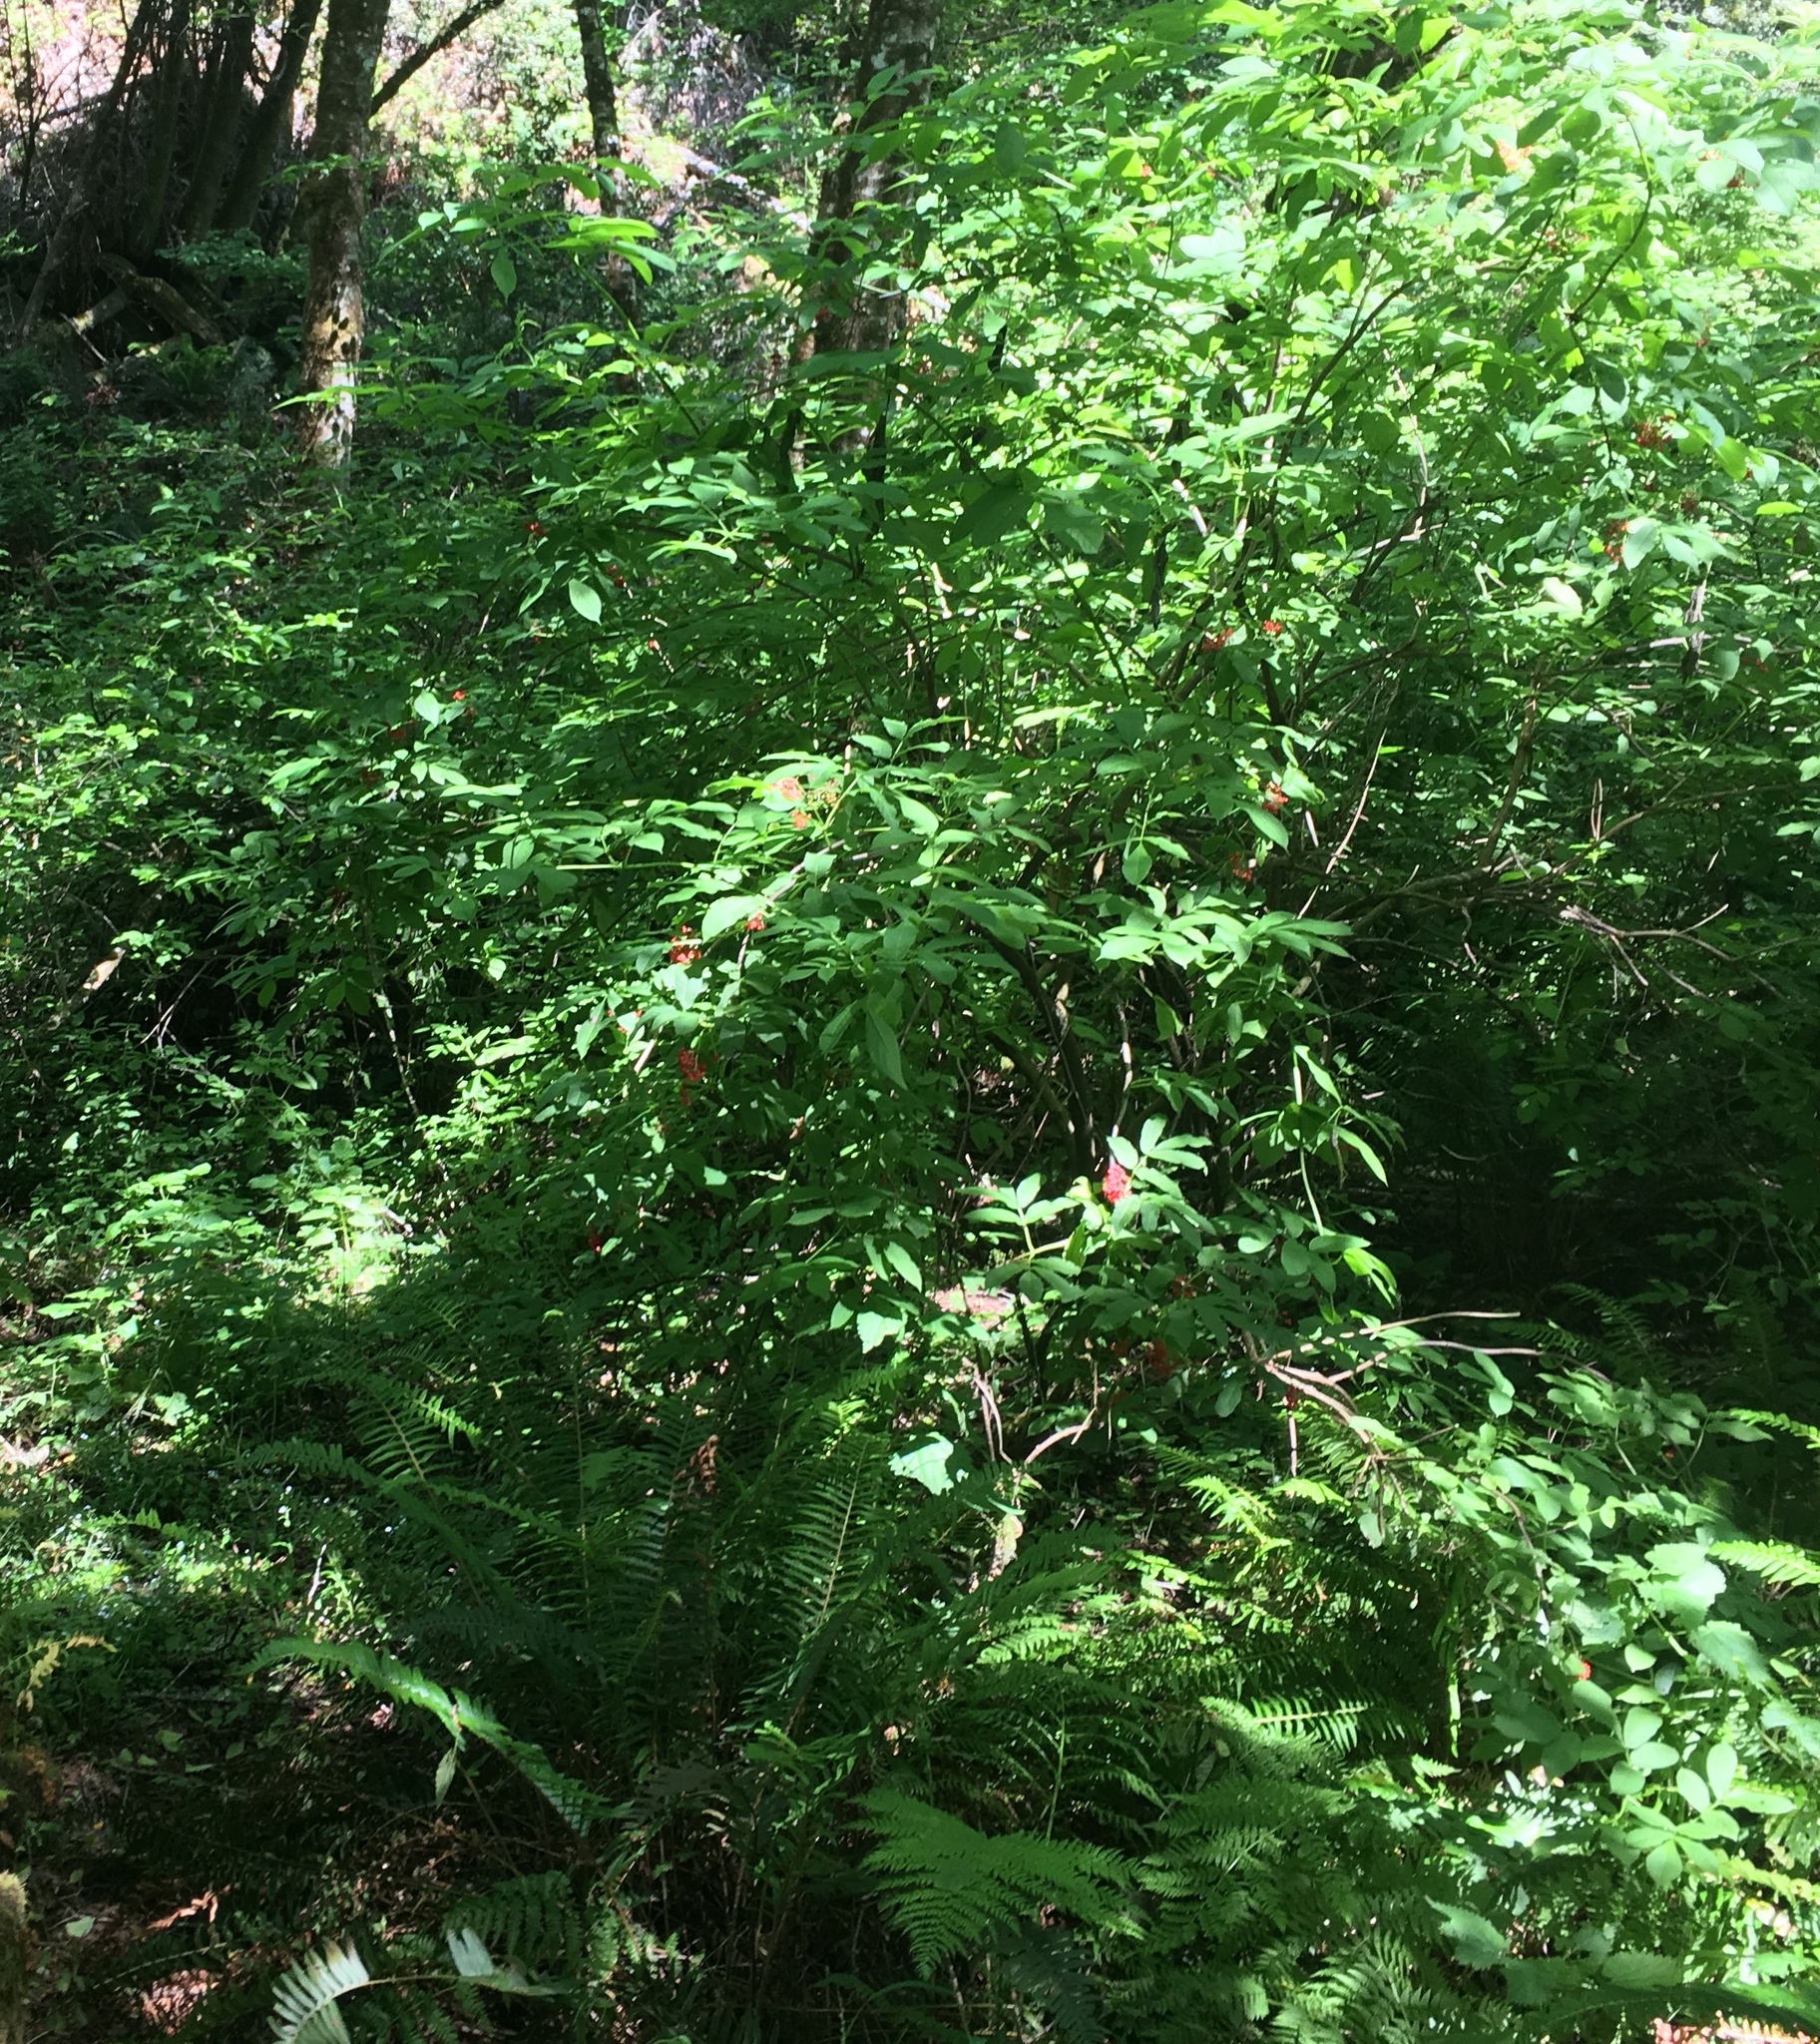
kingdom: Plantae
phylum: Tracheophyta
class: Magnoliopsida
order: Dipsacales
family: Viburnaceae
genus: Sambucus
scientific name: Sambucus racemosa
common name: Red-berried elder
